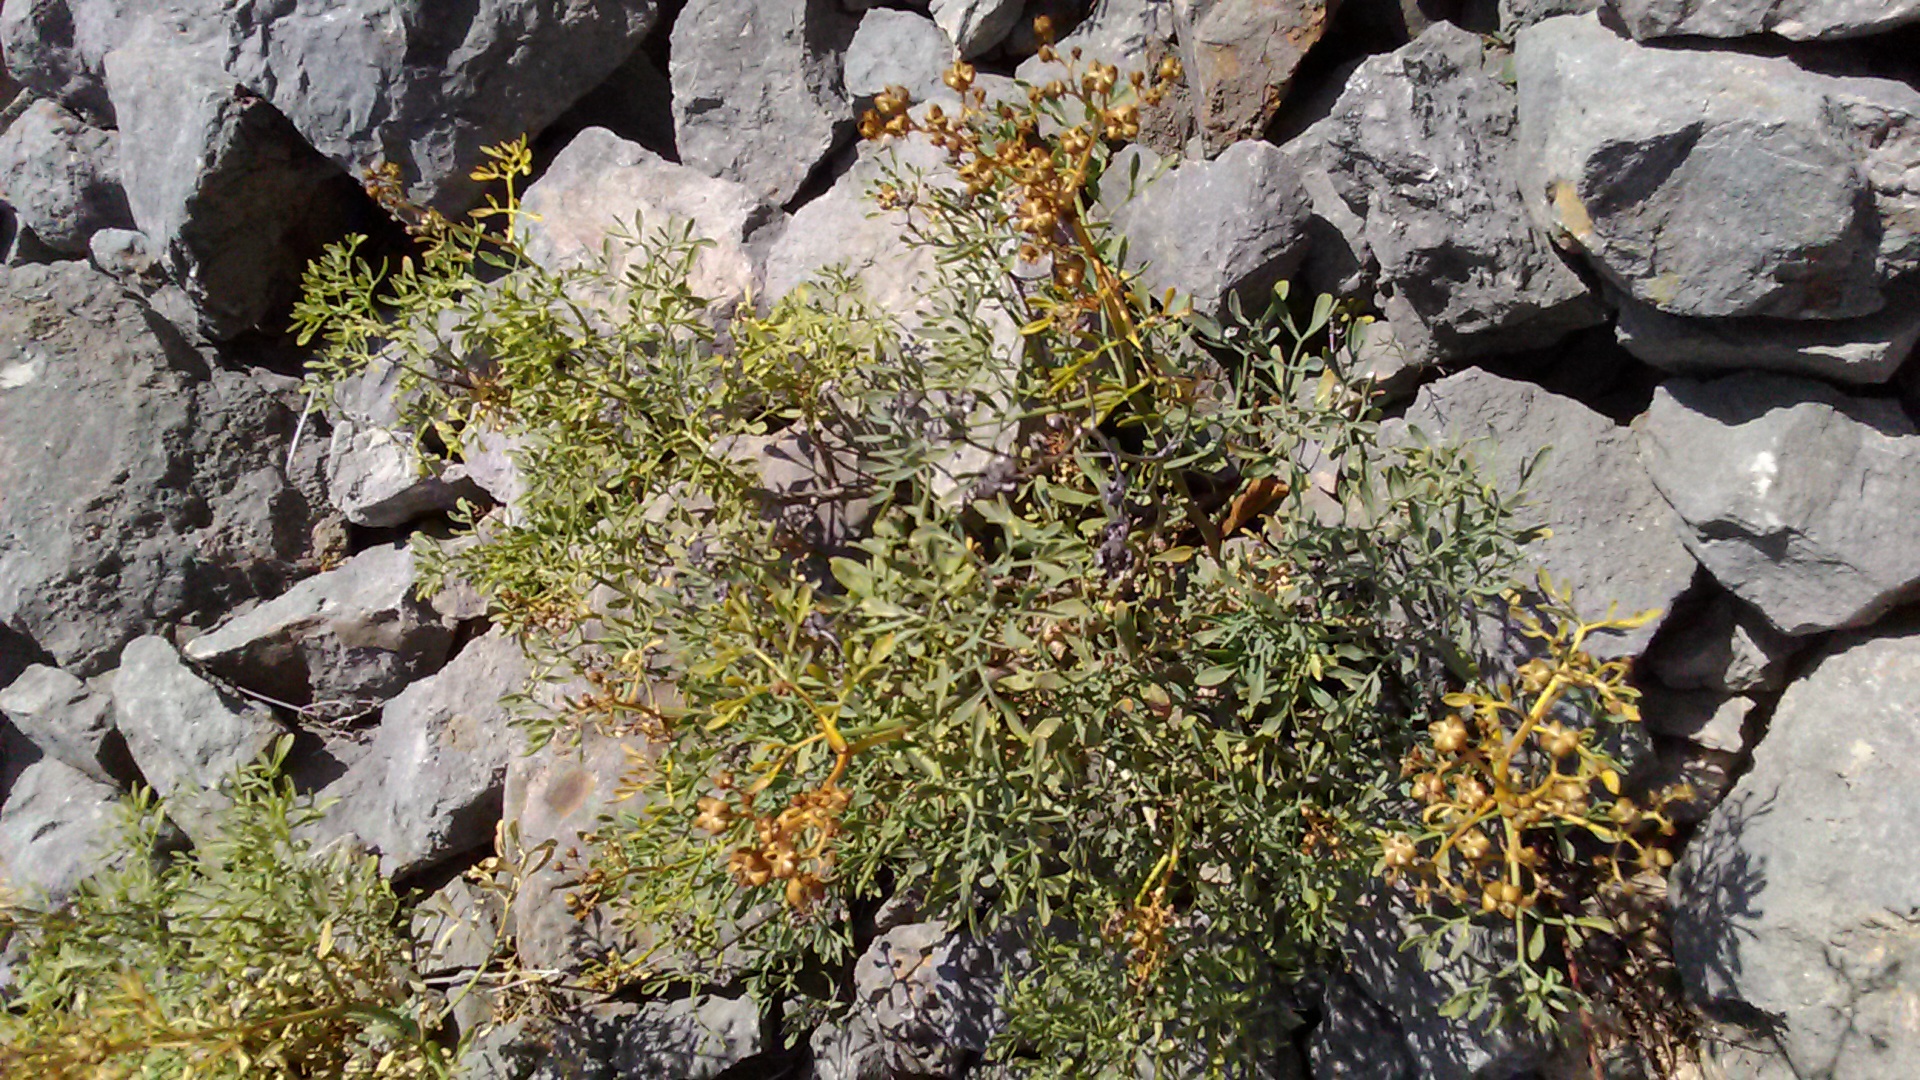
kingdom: Plantae
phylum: Tracheophyta
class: Magnoliopsida
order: Sapindales
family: Rutaceae
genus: Ruta
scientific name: Ruta
